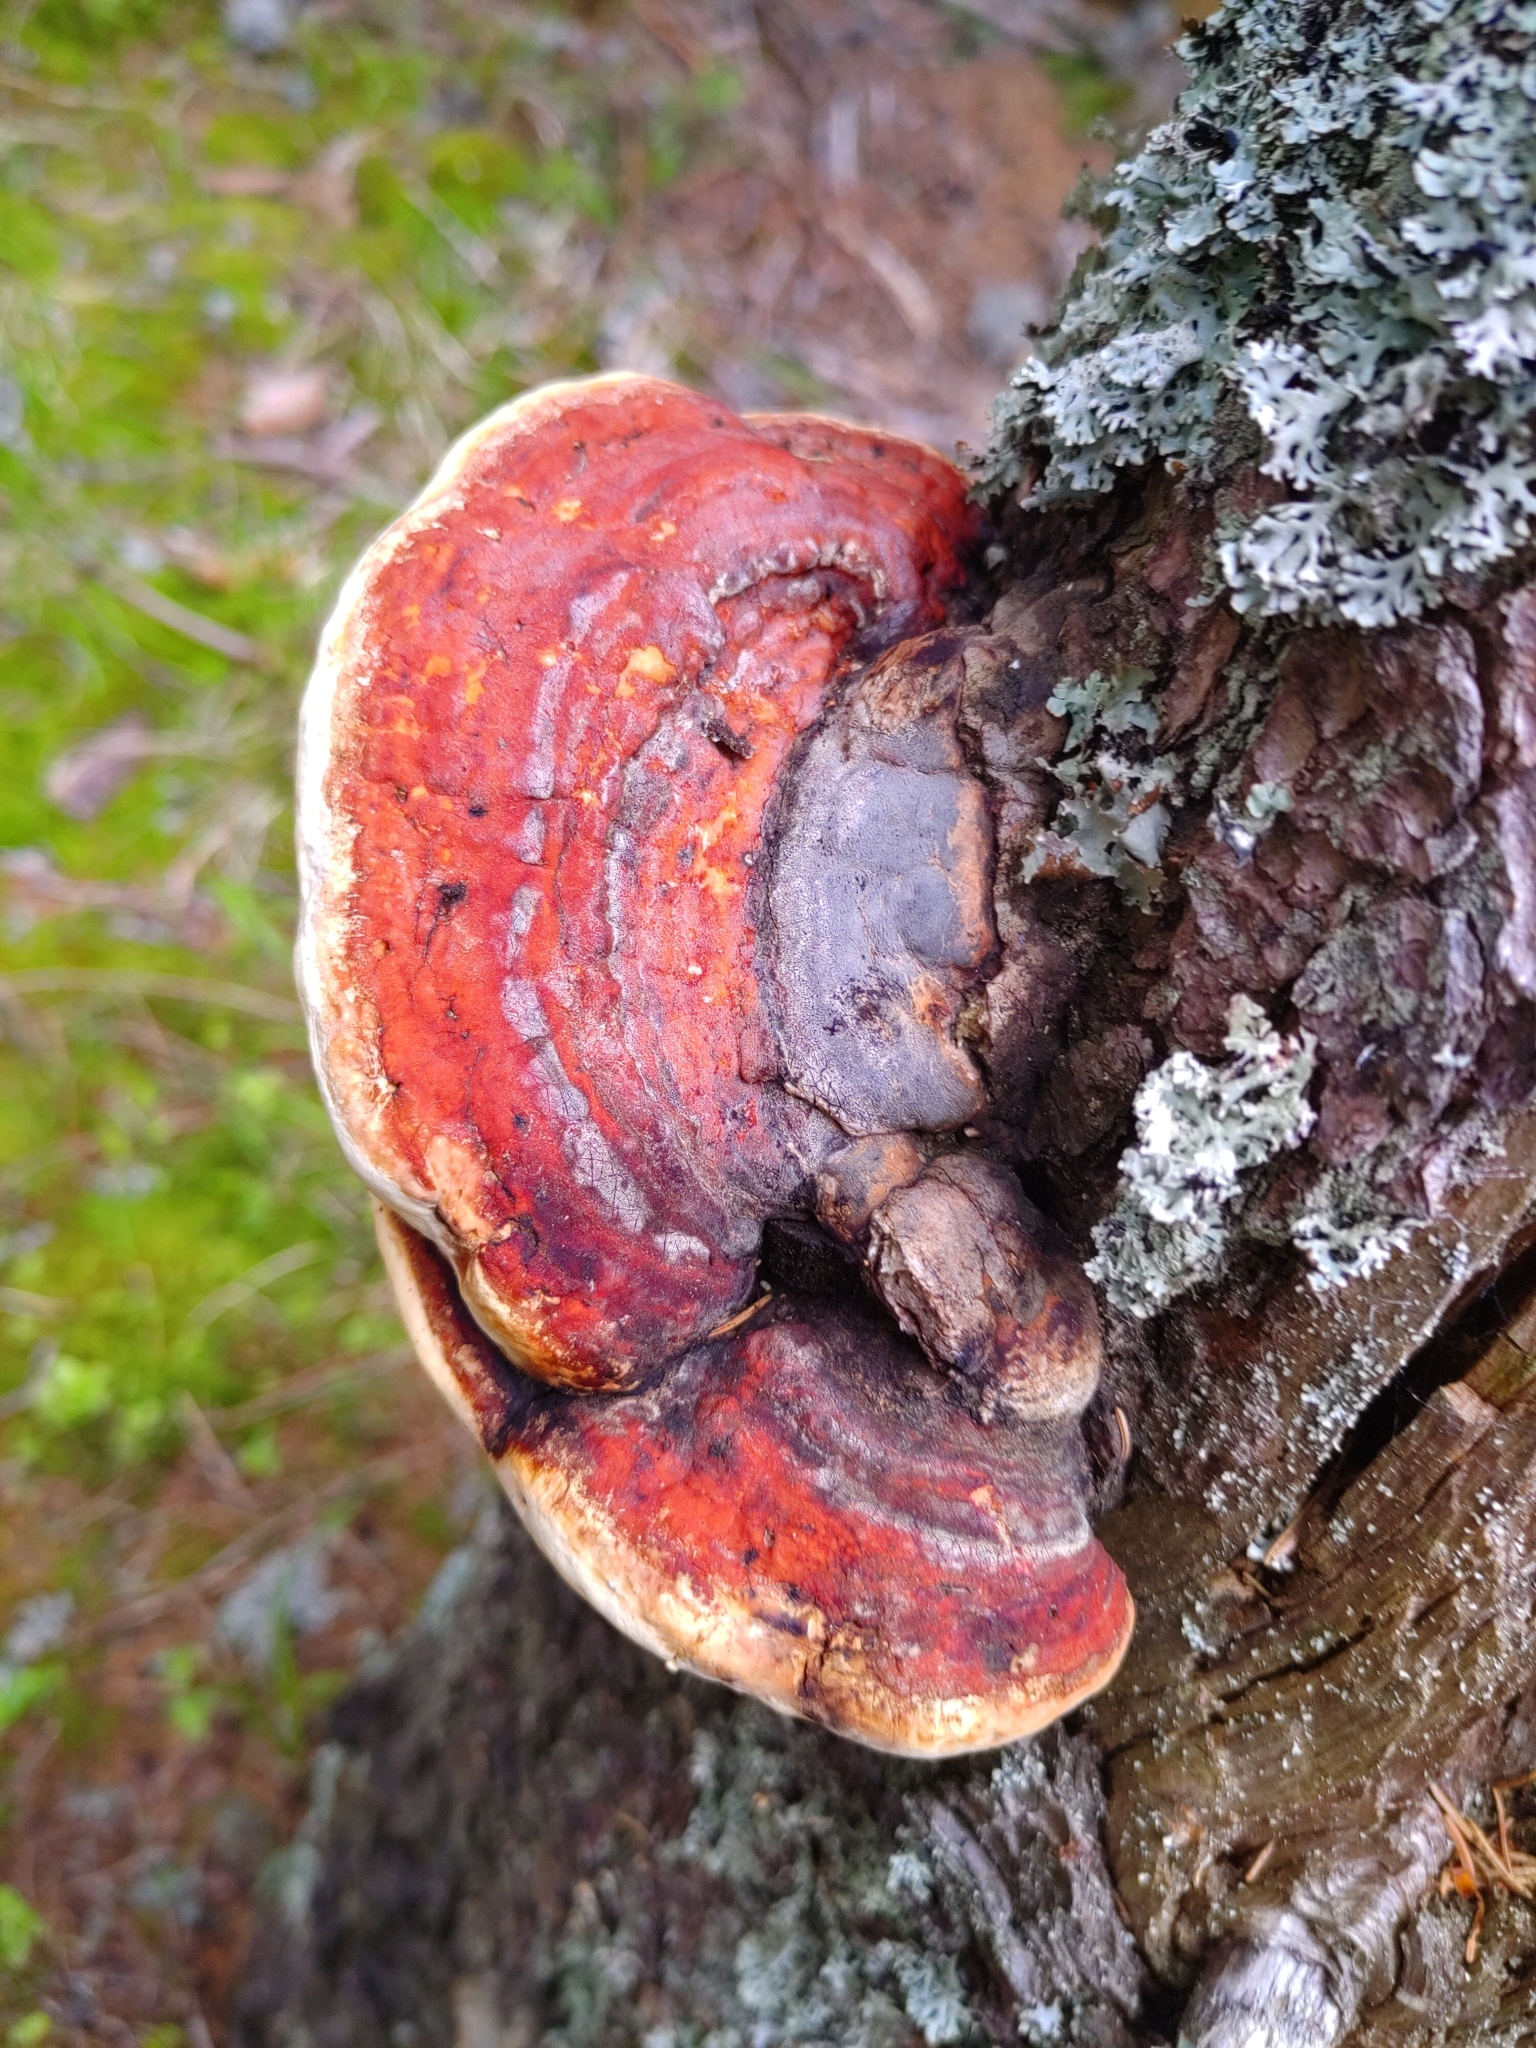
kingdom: Fungi
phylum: Basidiomycota
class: Agaricomycetes
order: Polyporales
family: Fomitopsidaceae
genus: Fomitopsis
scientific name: Fomitopsis pinicola
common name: Red-belted bracket
